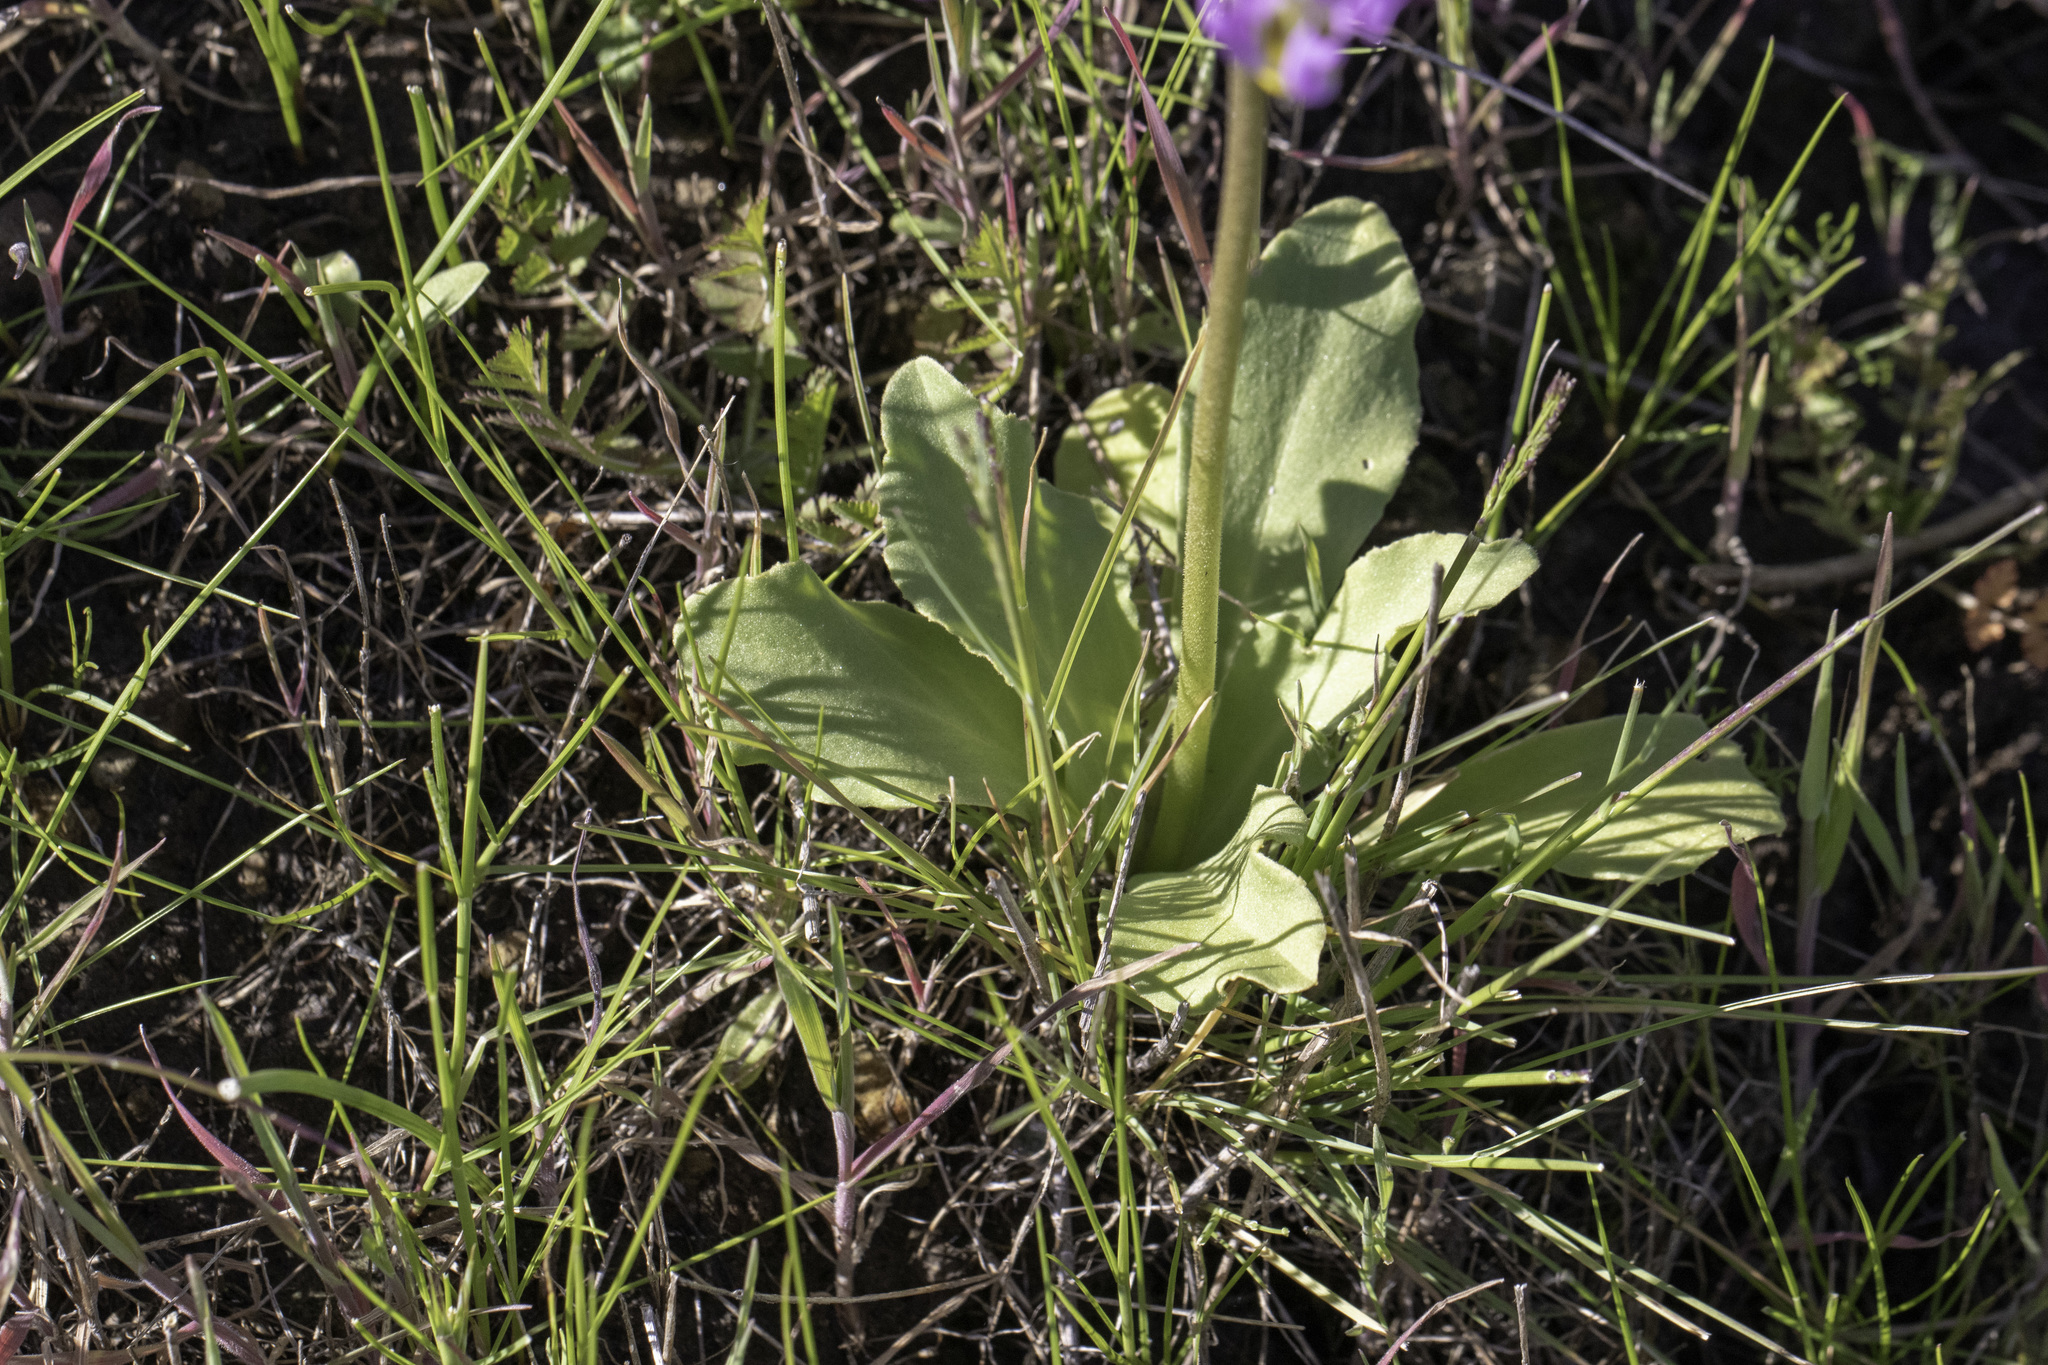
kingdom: Plantae
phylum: Tracheophyta
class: Magnoliopsida
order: Ericales
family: Primulaceae
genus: Dodecatheon
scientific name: Dodecatheon clevelandii
